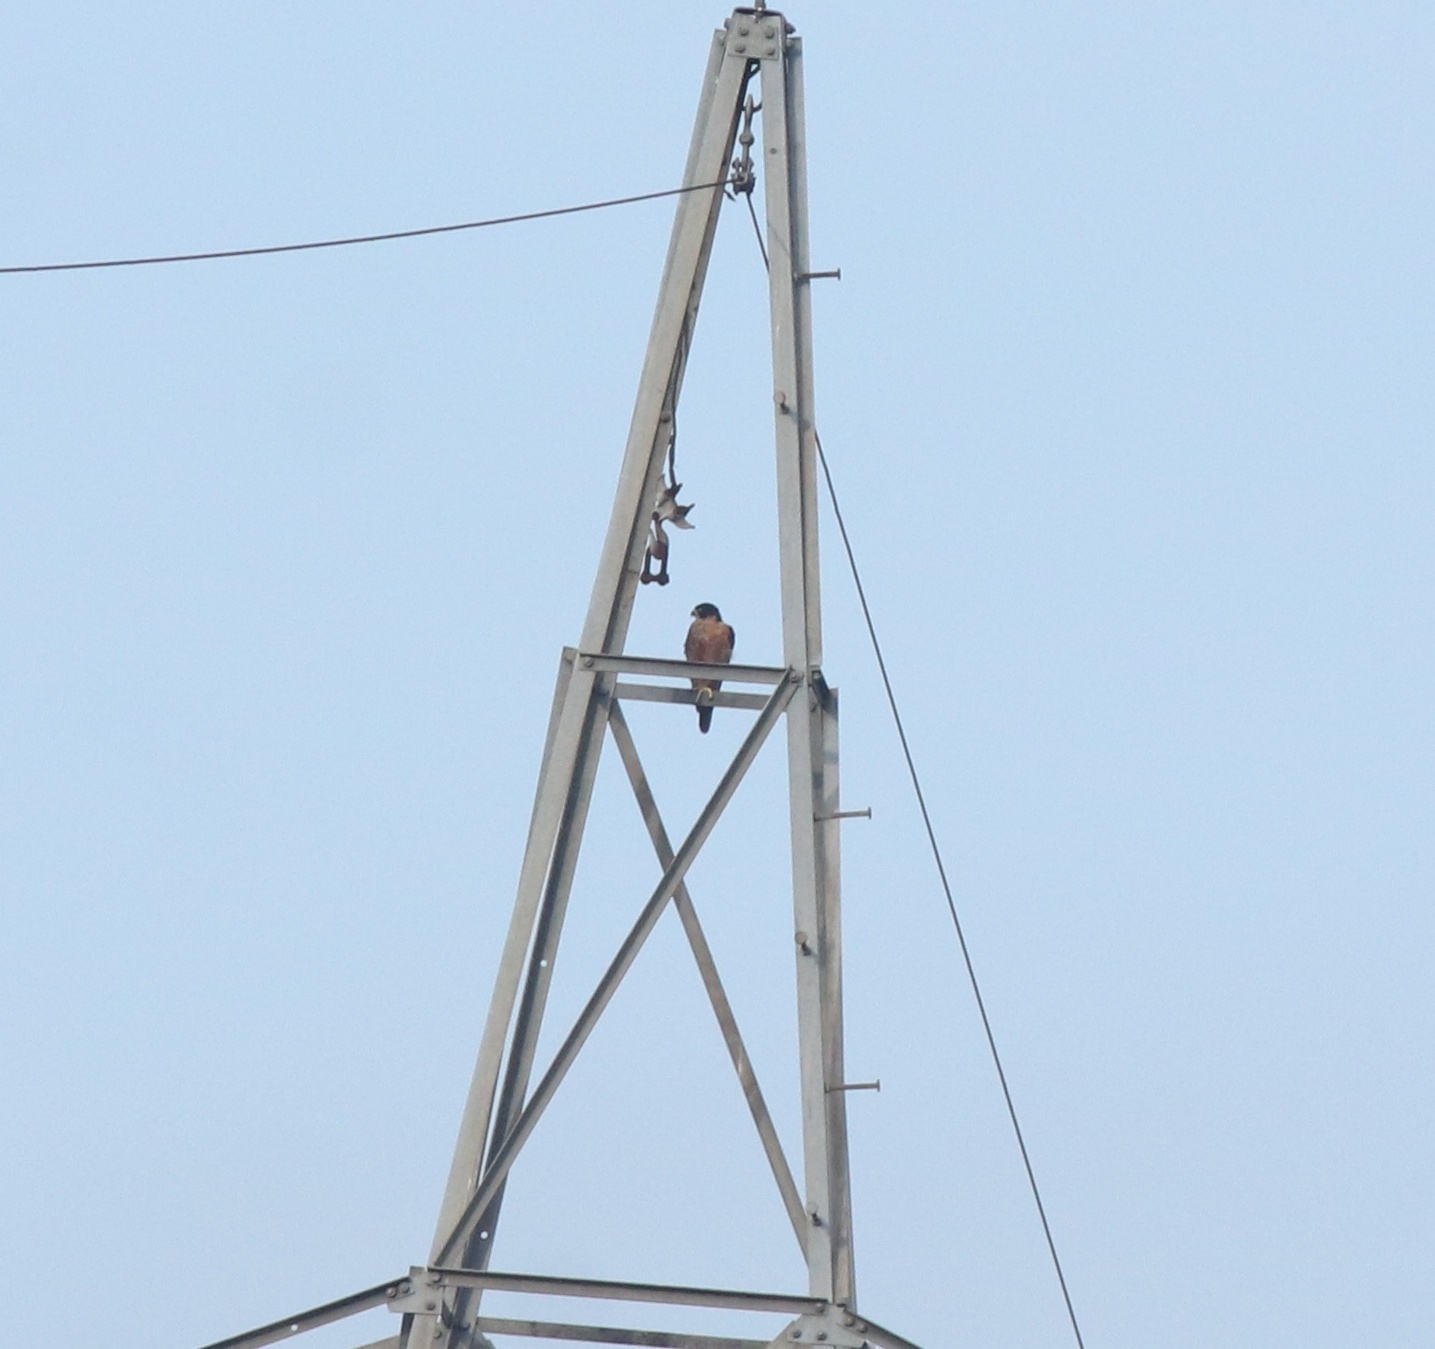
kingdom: Animalia
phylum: Chordata
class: Aves
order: Falconiformes
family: Falconidae
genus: Falco
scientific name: Falco peregrinus
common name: Peregrine falcon
